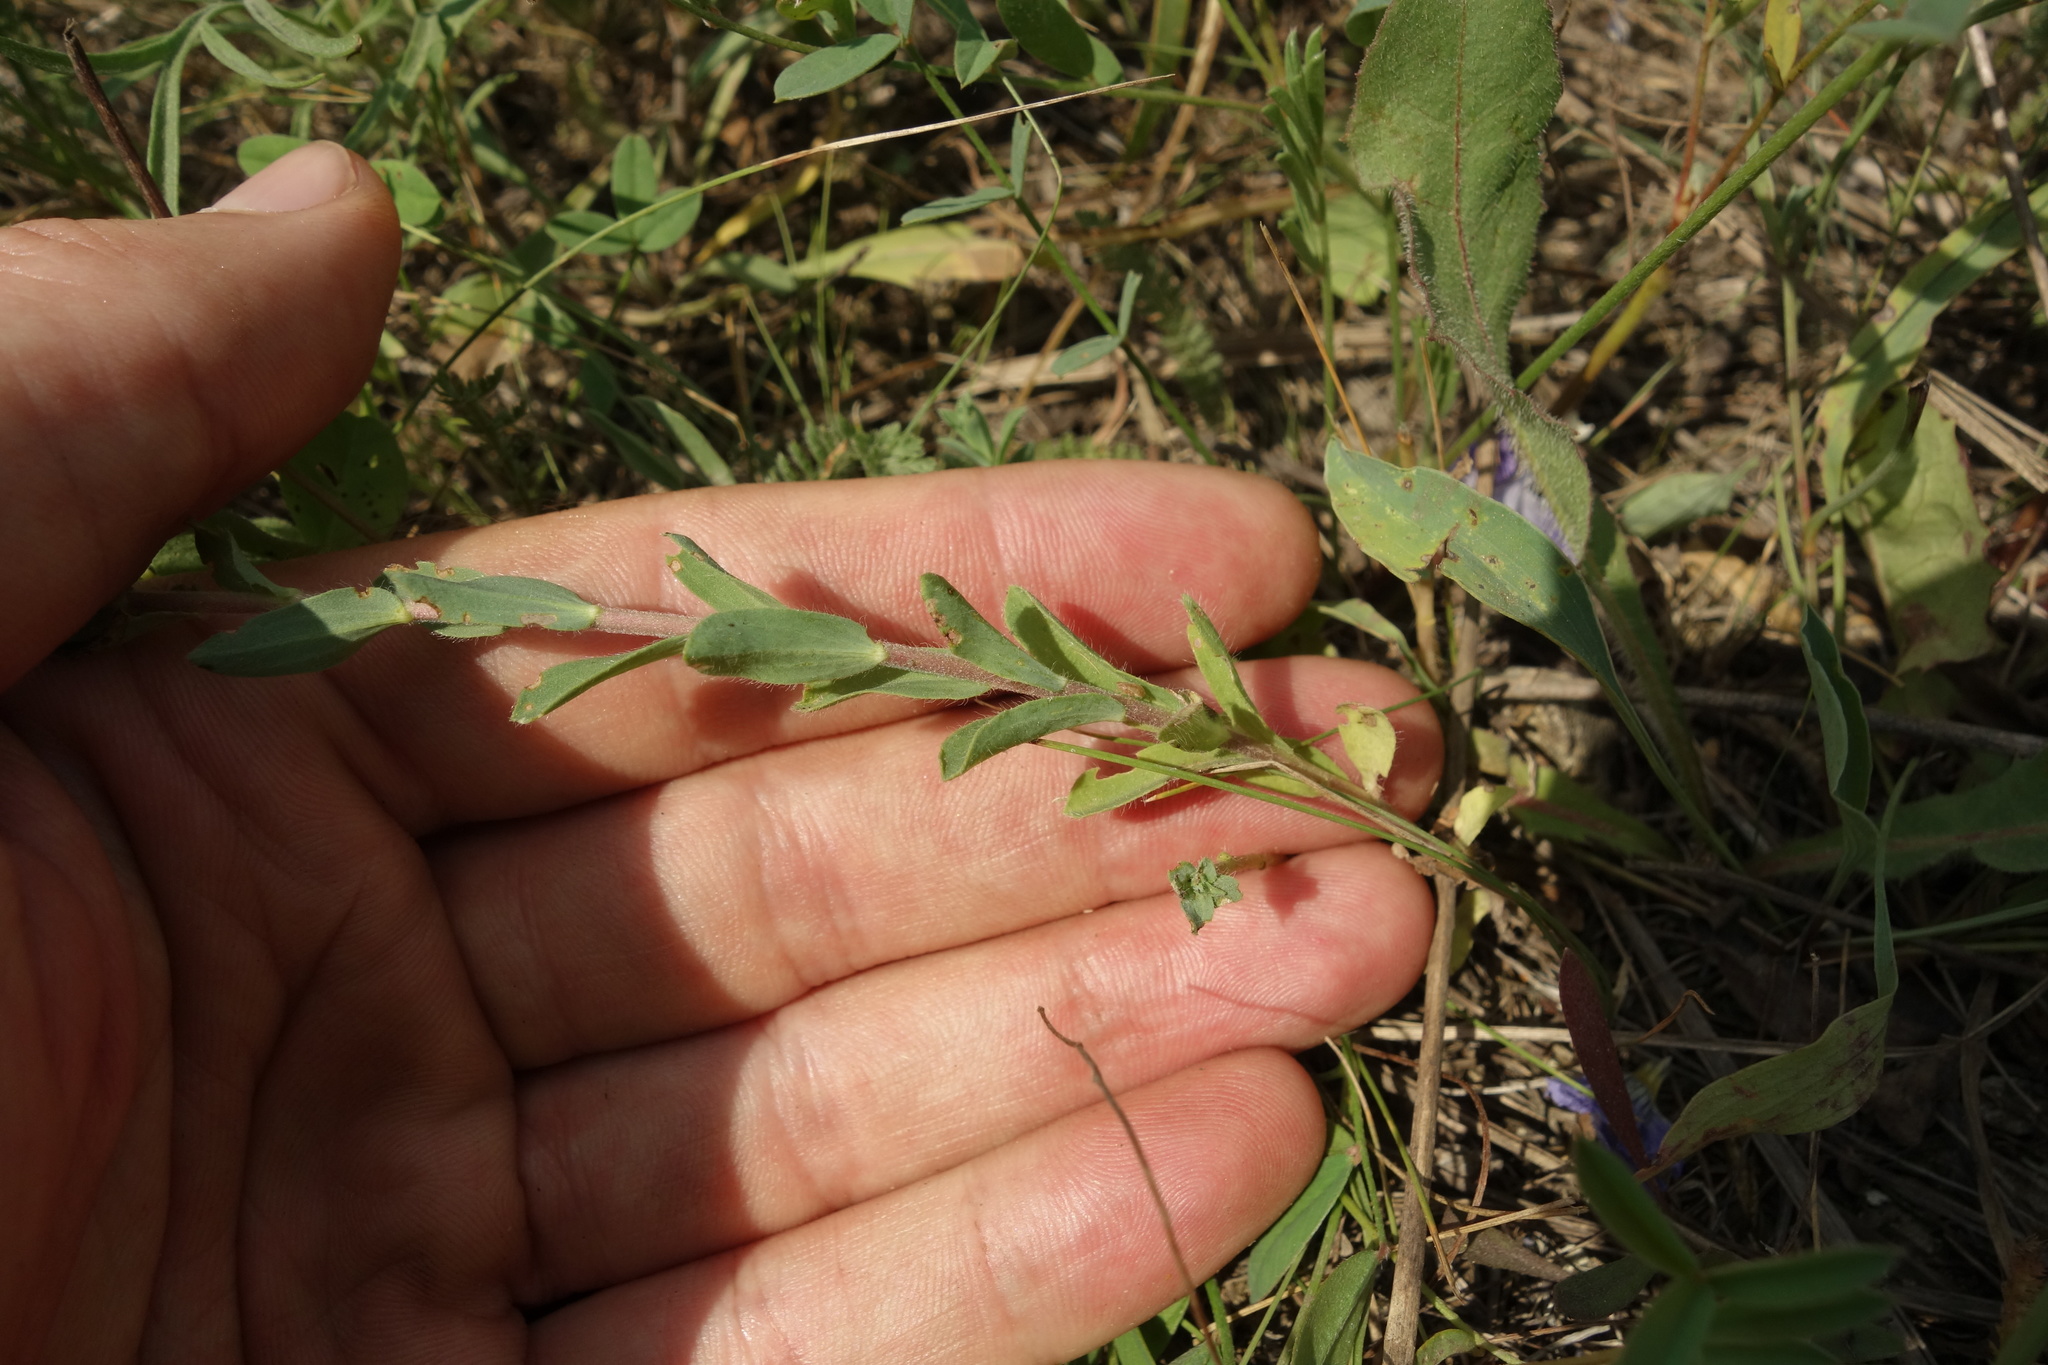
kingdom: Plantae
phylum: Tracheophyta
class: Magnoliopsida
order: Malpighiales
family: Linaceae
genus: Linum
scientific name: Linum hirsutum
